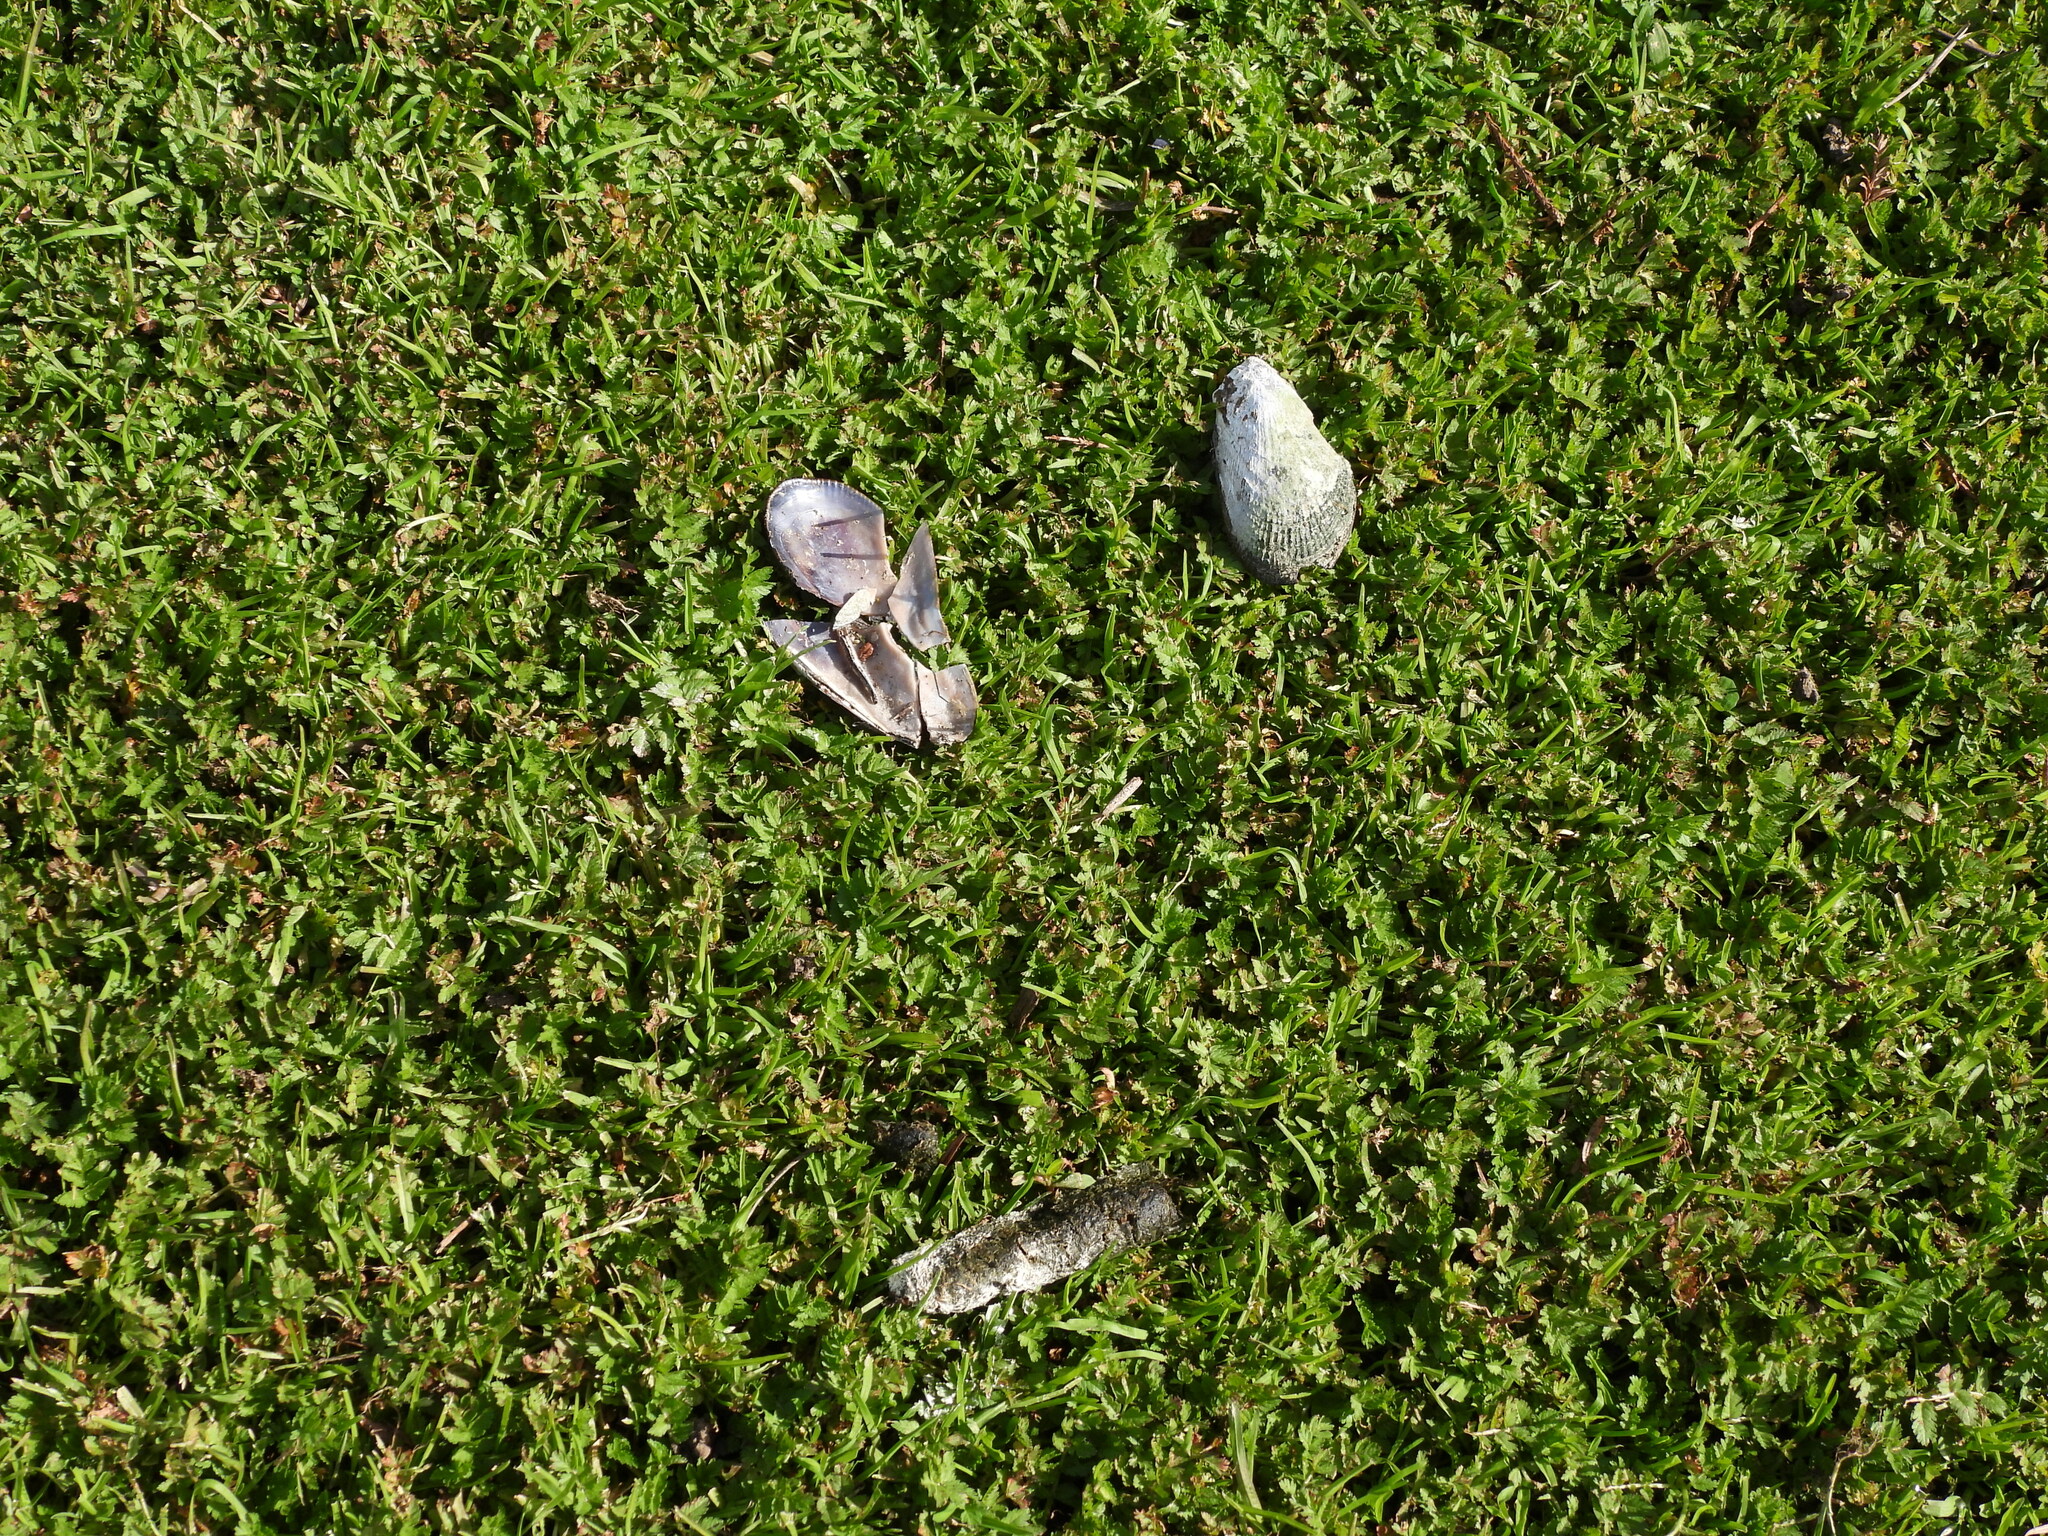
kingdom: Animalia
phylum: Mollusca
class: Bivalvia
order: Mytilida
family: Mytilidae
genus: Geukensia
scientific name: Geukensia demissa
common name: Ribbed mussel
